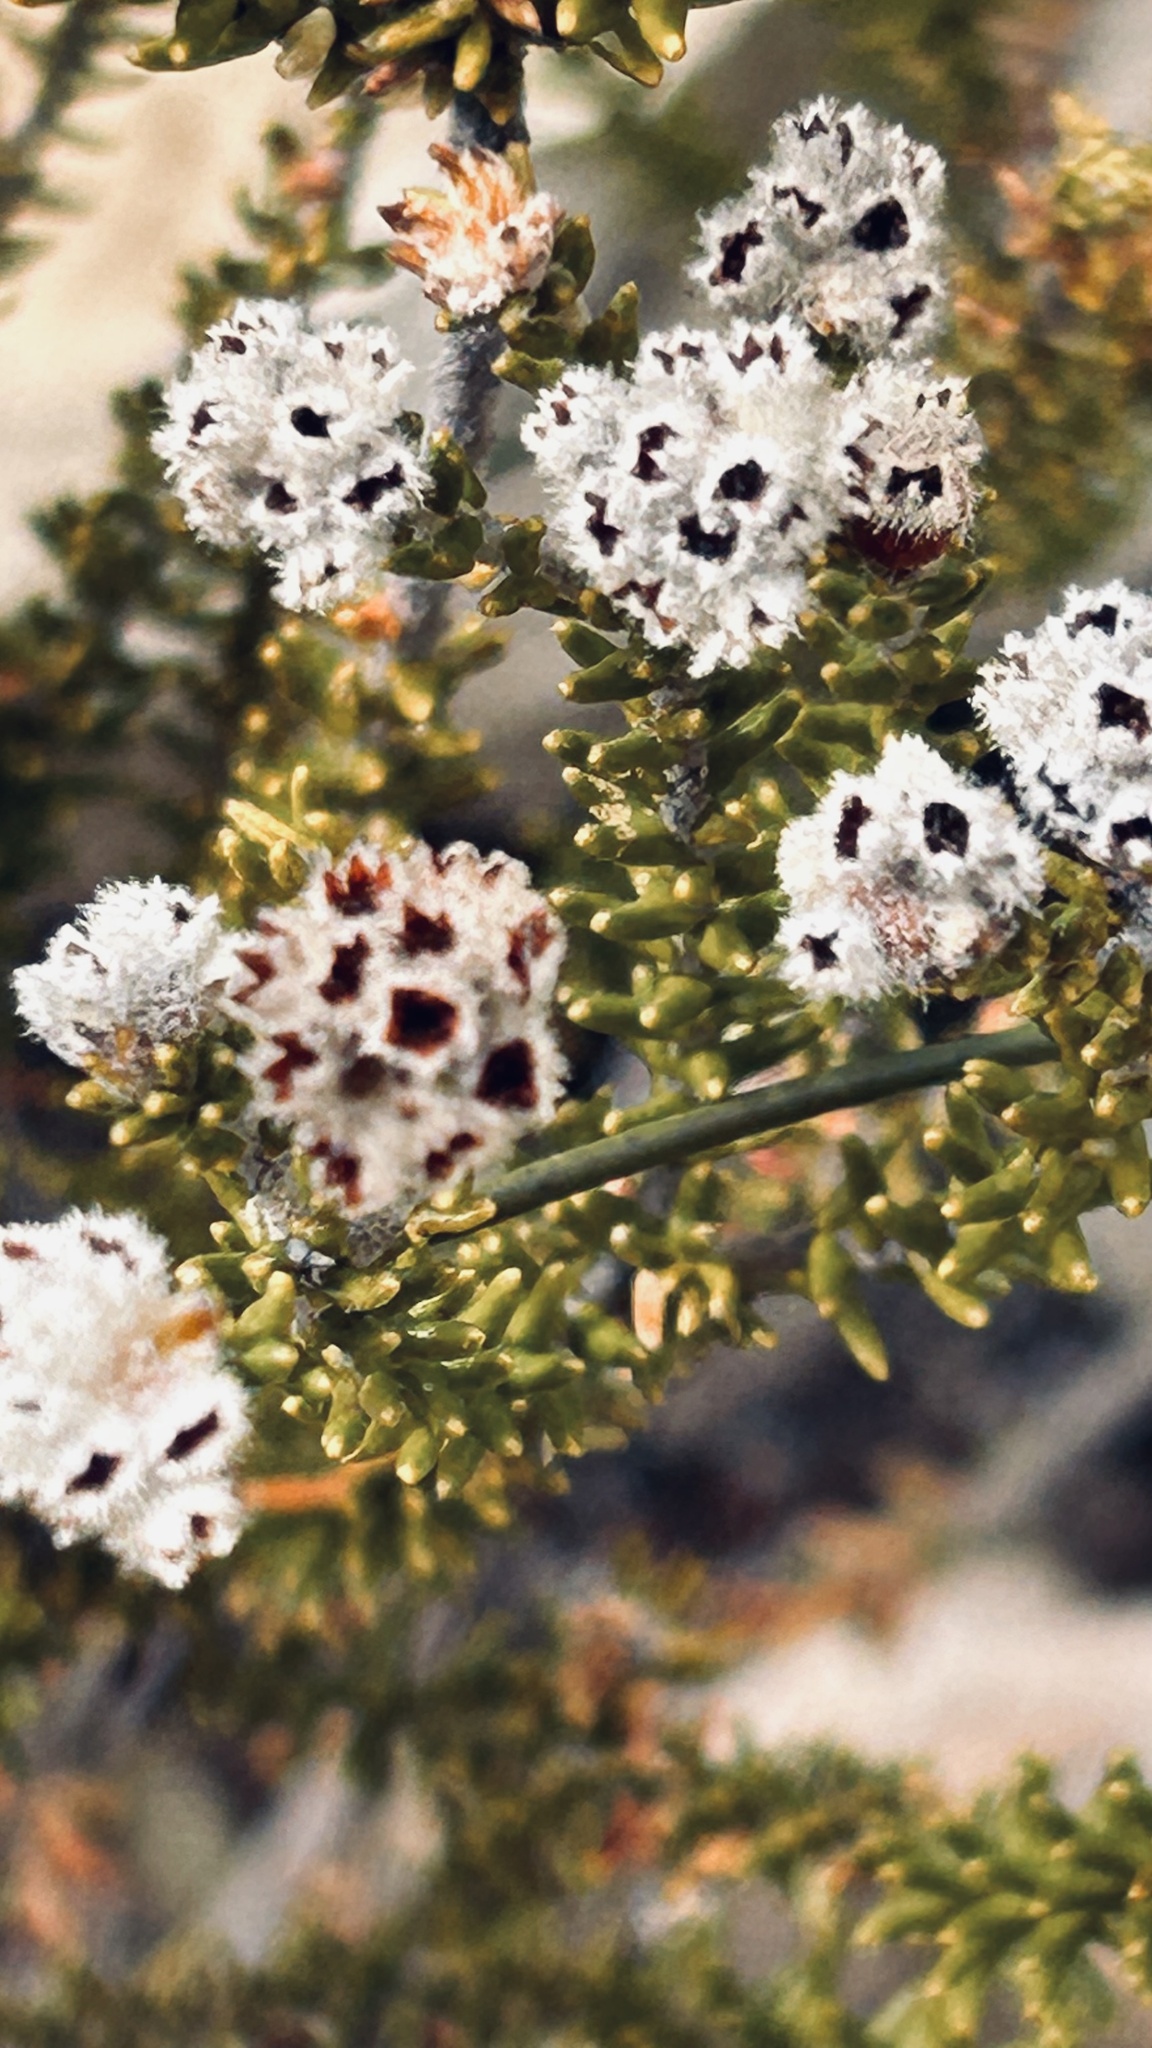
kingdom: Plantae
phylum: Tracheophyta
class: Magnoliopsida
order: Rosales
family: Rhamnaceae
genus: Phylica
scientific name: Phylica purpurea
